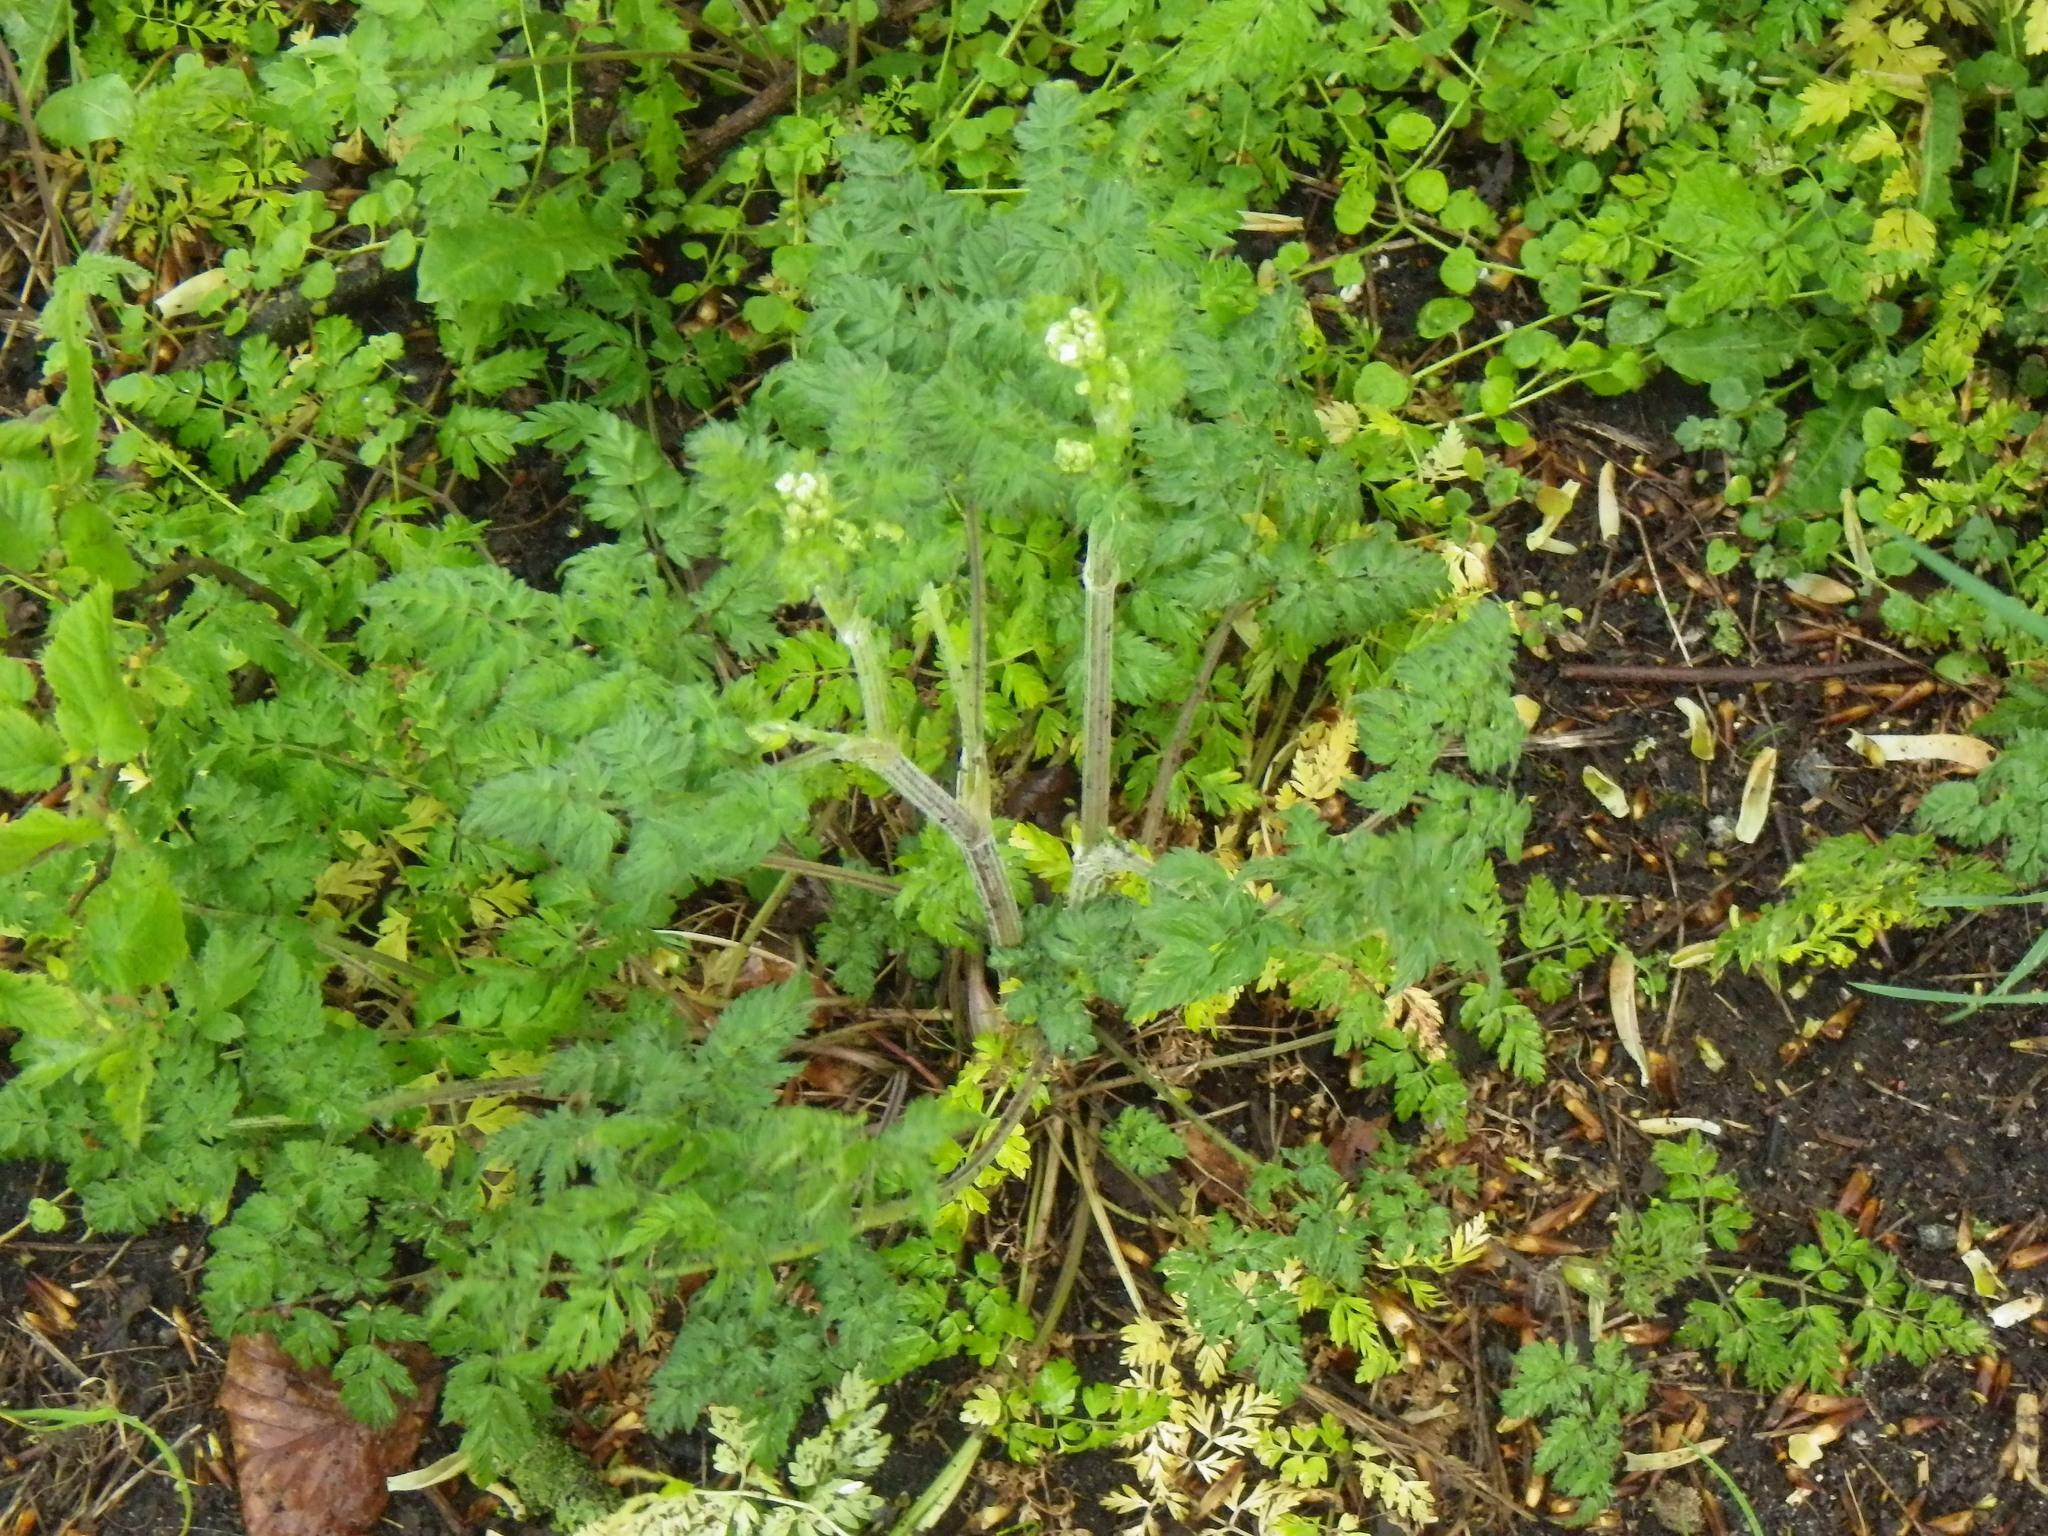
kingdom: Plantae
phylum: Tracheophyta
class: Magnoliopsida
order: Apiales
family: Apiaceae
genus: Anthriscus
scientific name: Anthriscus sylvestris
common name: Cow parsley
